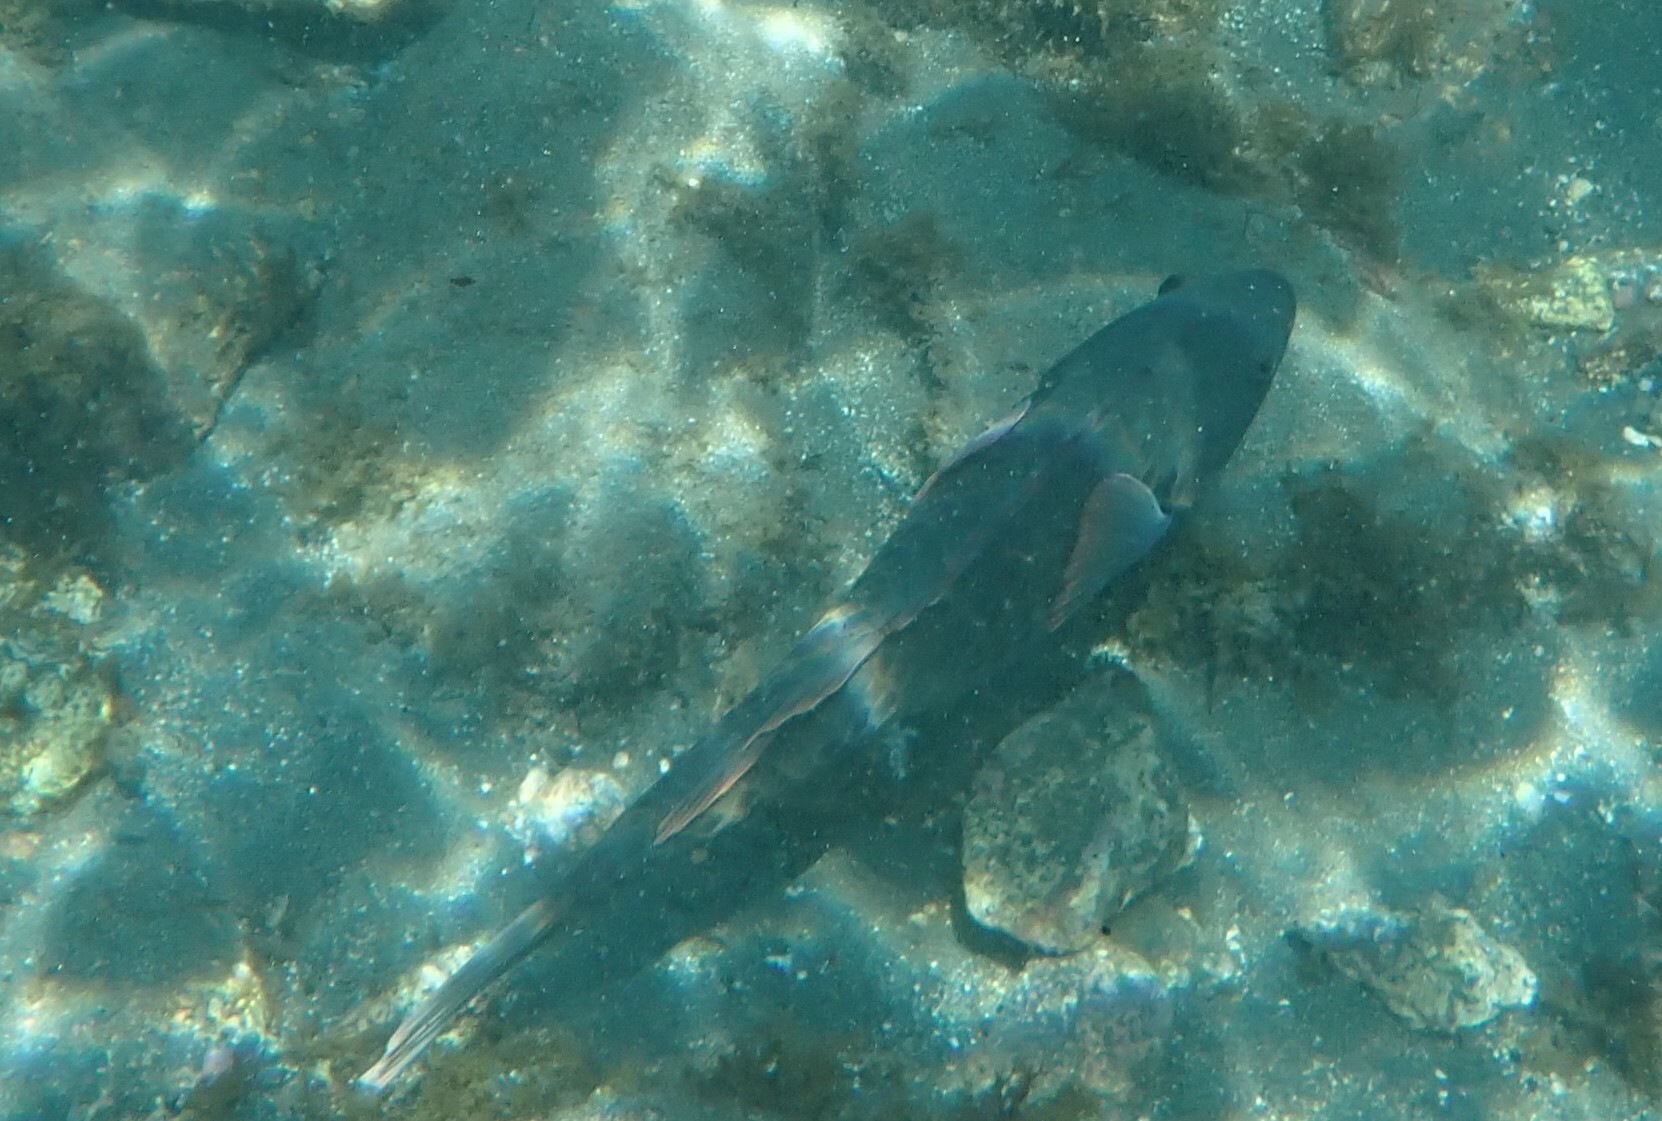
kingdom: Animalia
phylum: Chordata
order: Perciformes
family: Scaridae
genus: Sparisoma
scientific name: Sparisoma cretense
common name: Parrotfish
